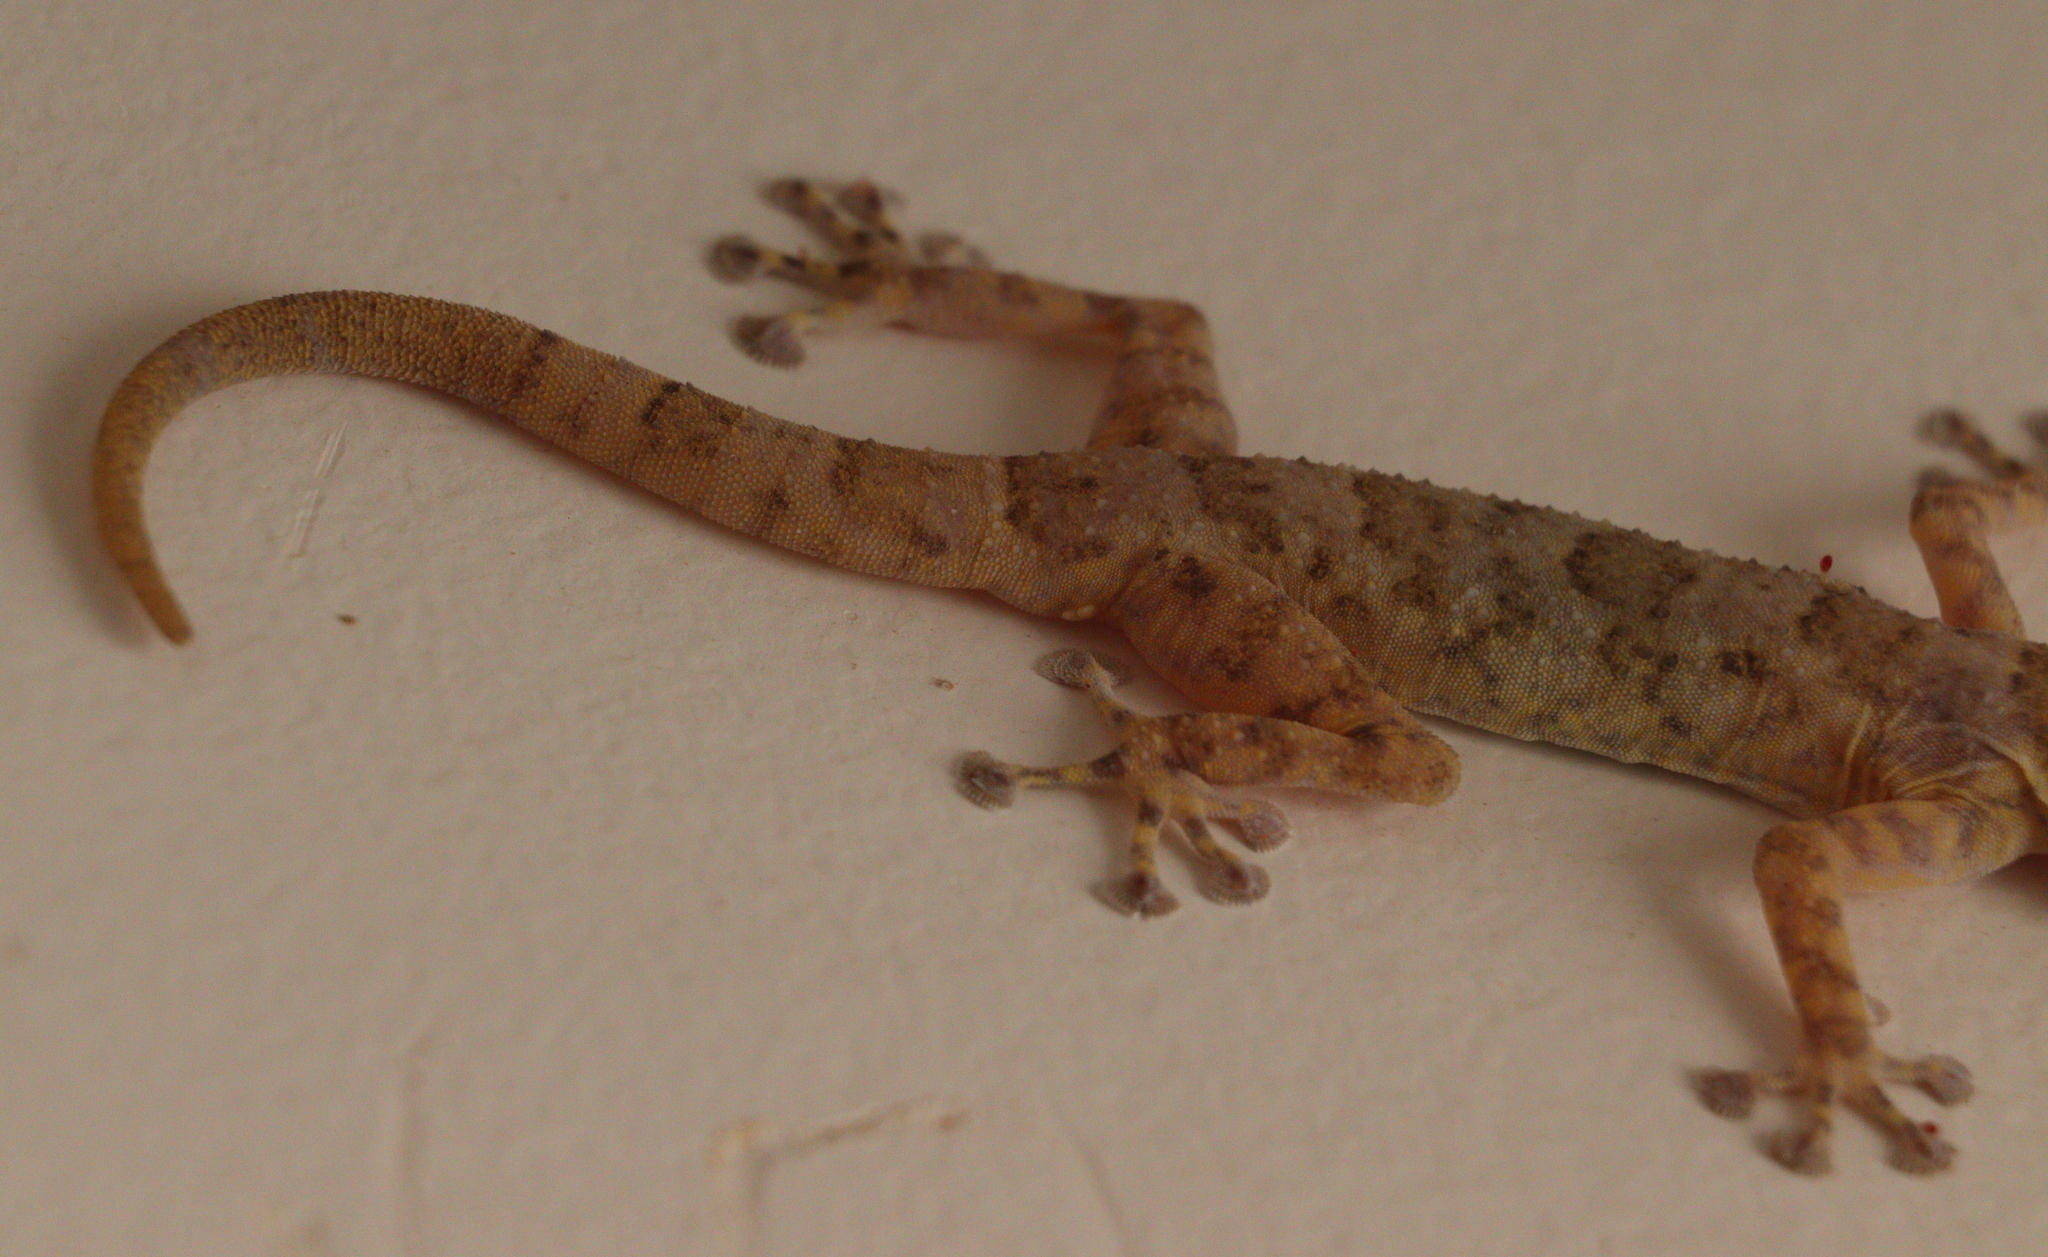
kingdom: Animalia
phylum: Chordata
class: Squamata
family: Phyllodactylidae
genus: Ptyodactylus
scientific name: Ptyodactylus hasselquistii
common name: Hasselquist’s fan-footed gecko
